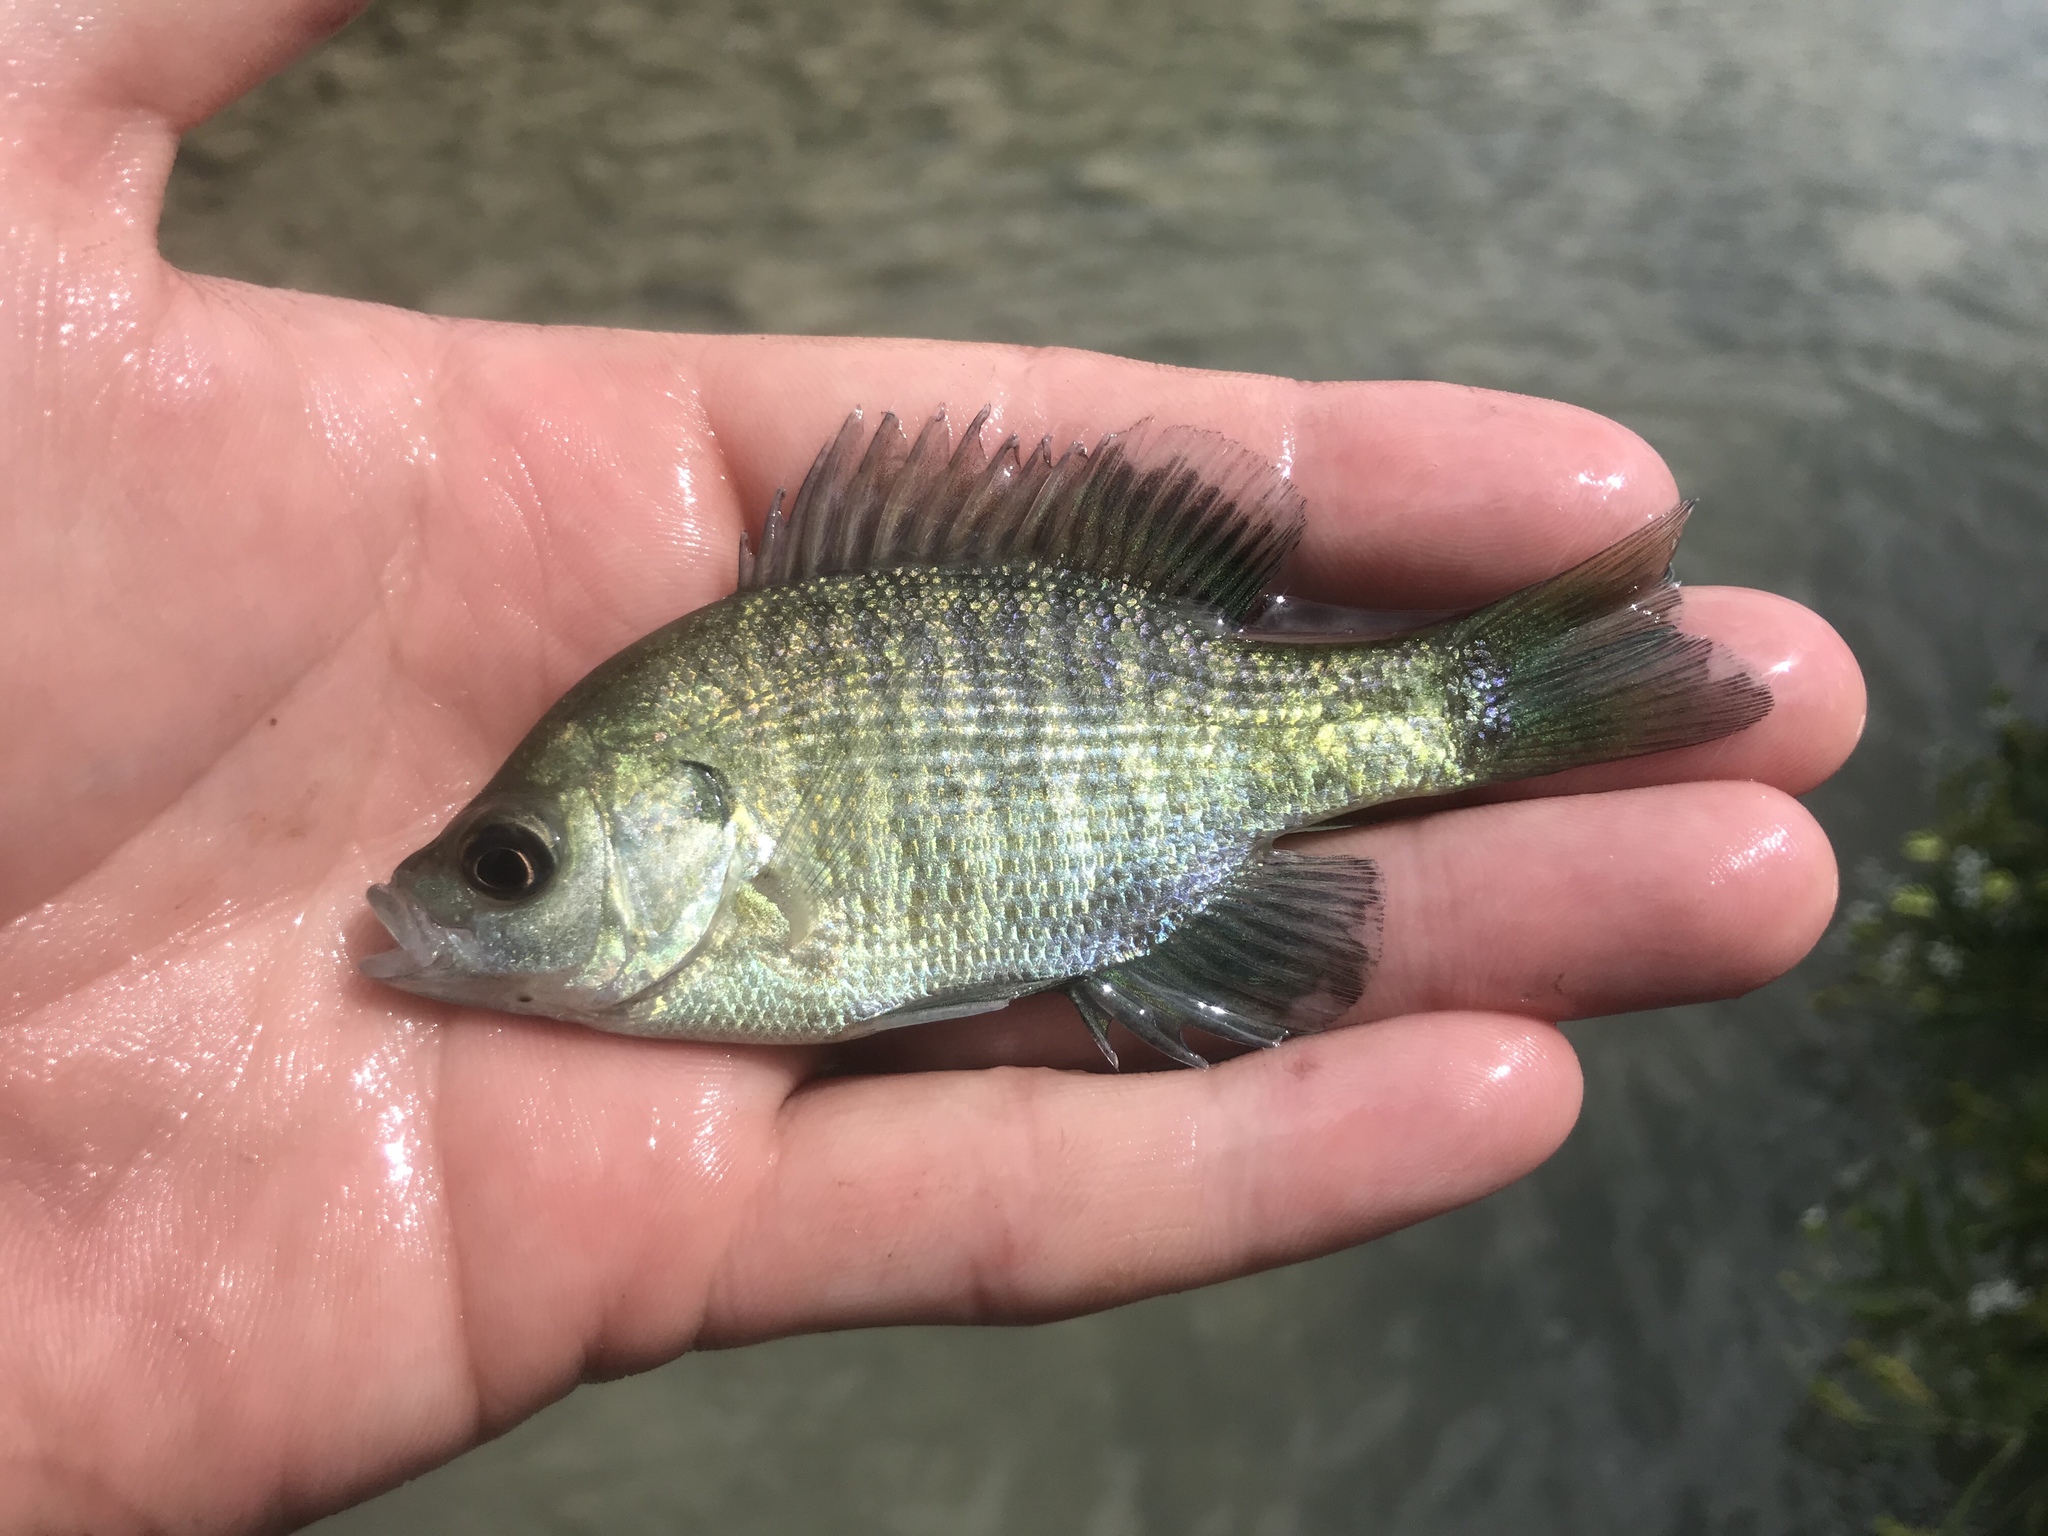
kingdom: Animalia
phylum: Chordata
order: Perciformes
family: Centrarchidae
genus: Lepomis
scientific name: Lepomis macrochirus
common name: Bluegill
